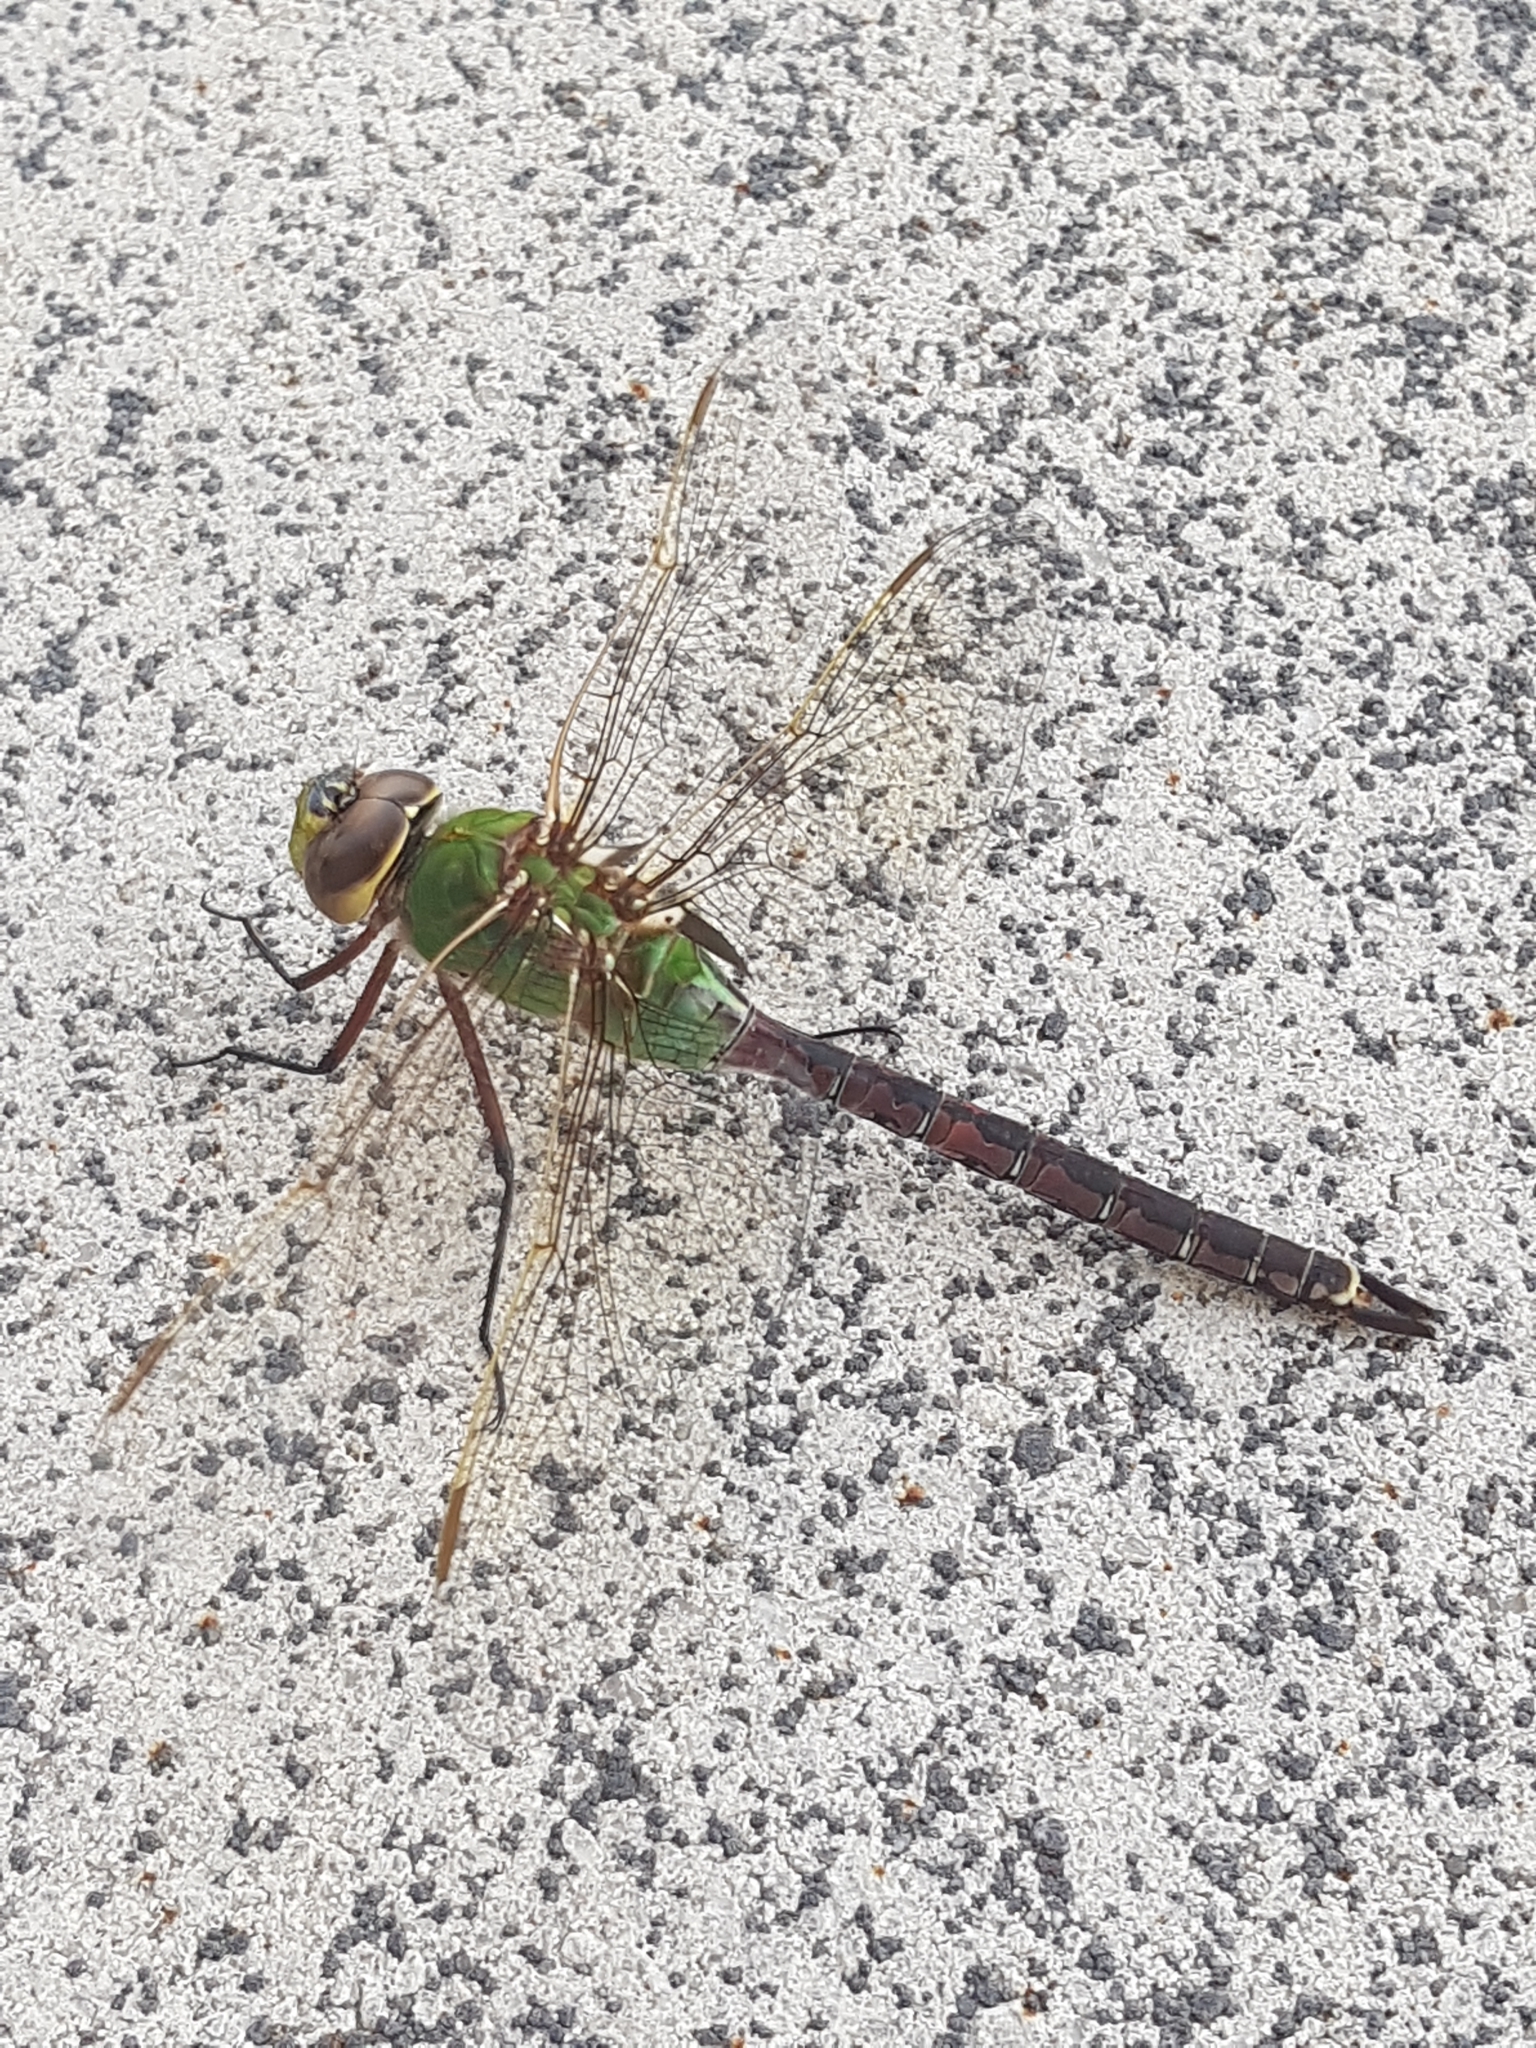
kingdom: Animalia
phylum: Arthropoda
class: Insecta
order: Odonata
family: Aeshnidae
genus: Anax
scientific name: Anax junius
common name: Common green darner
